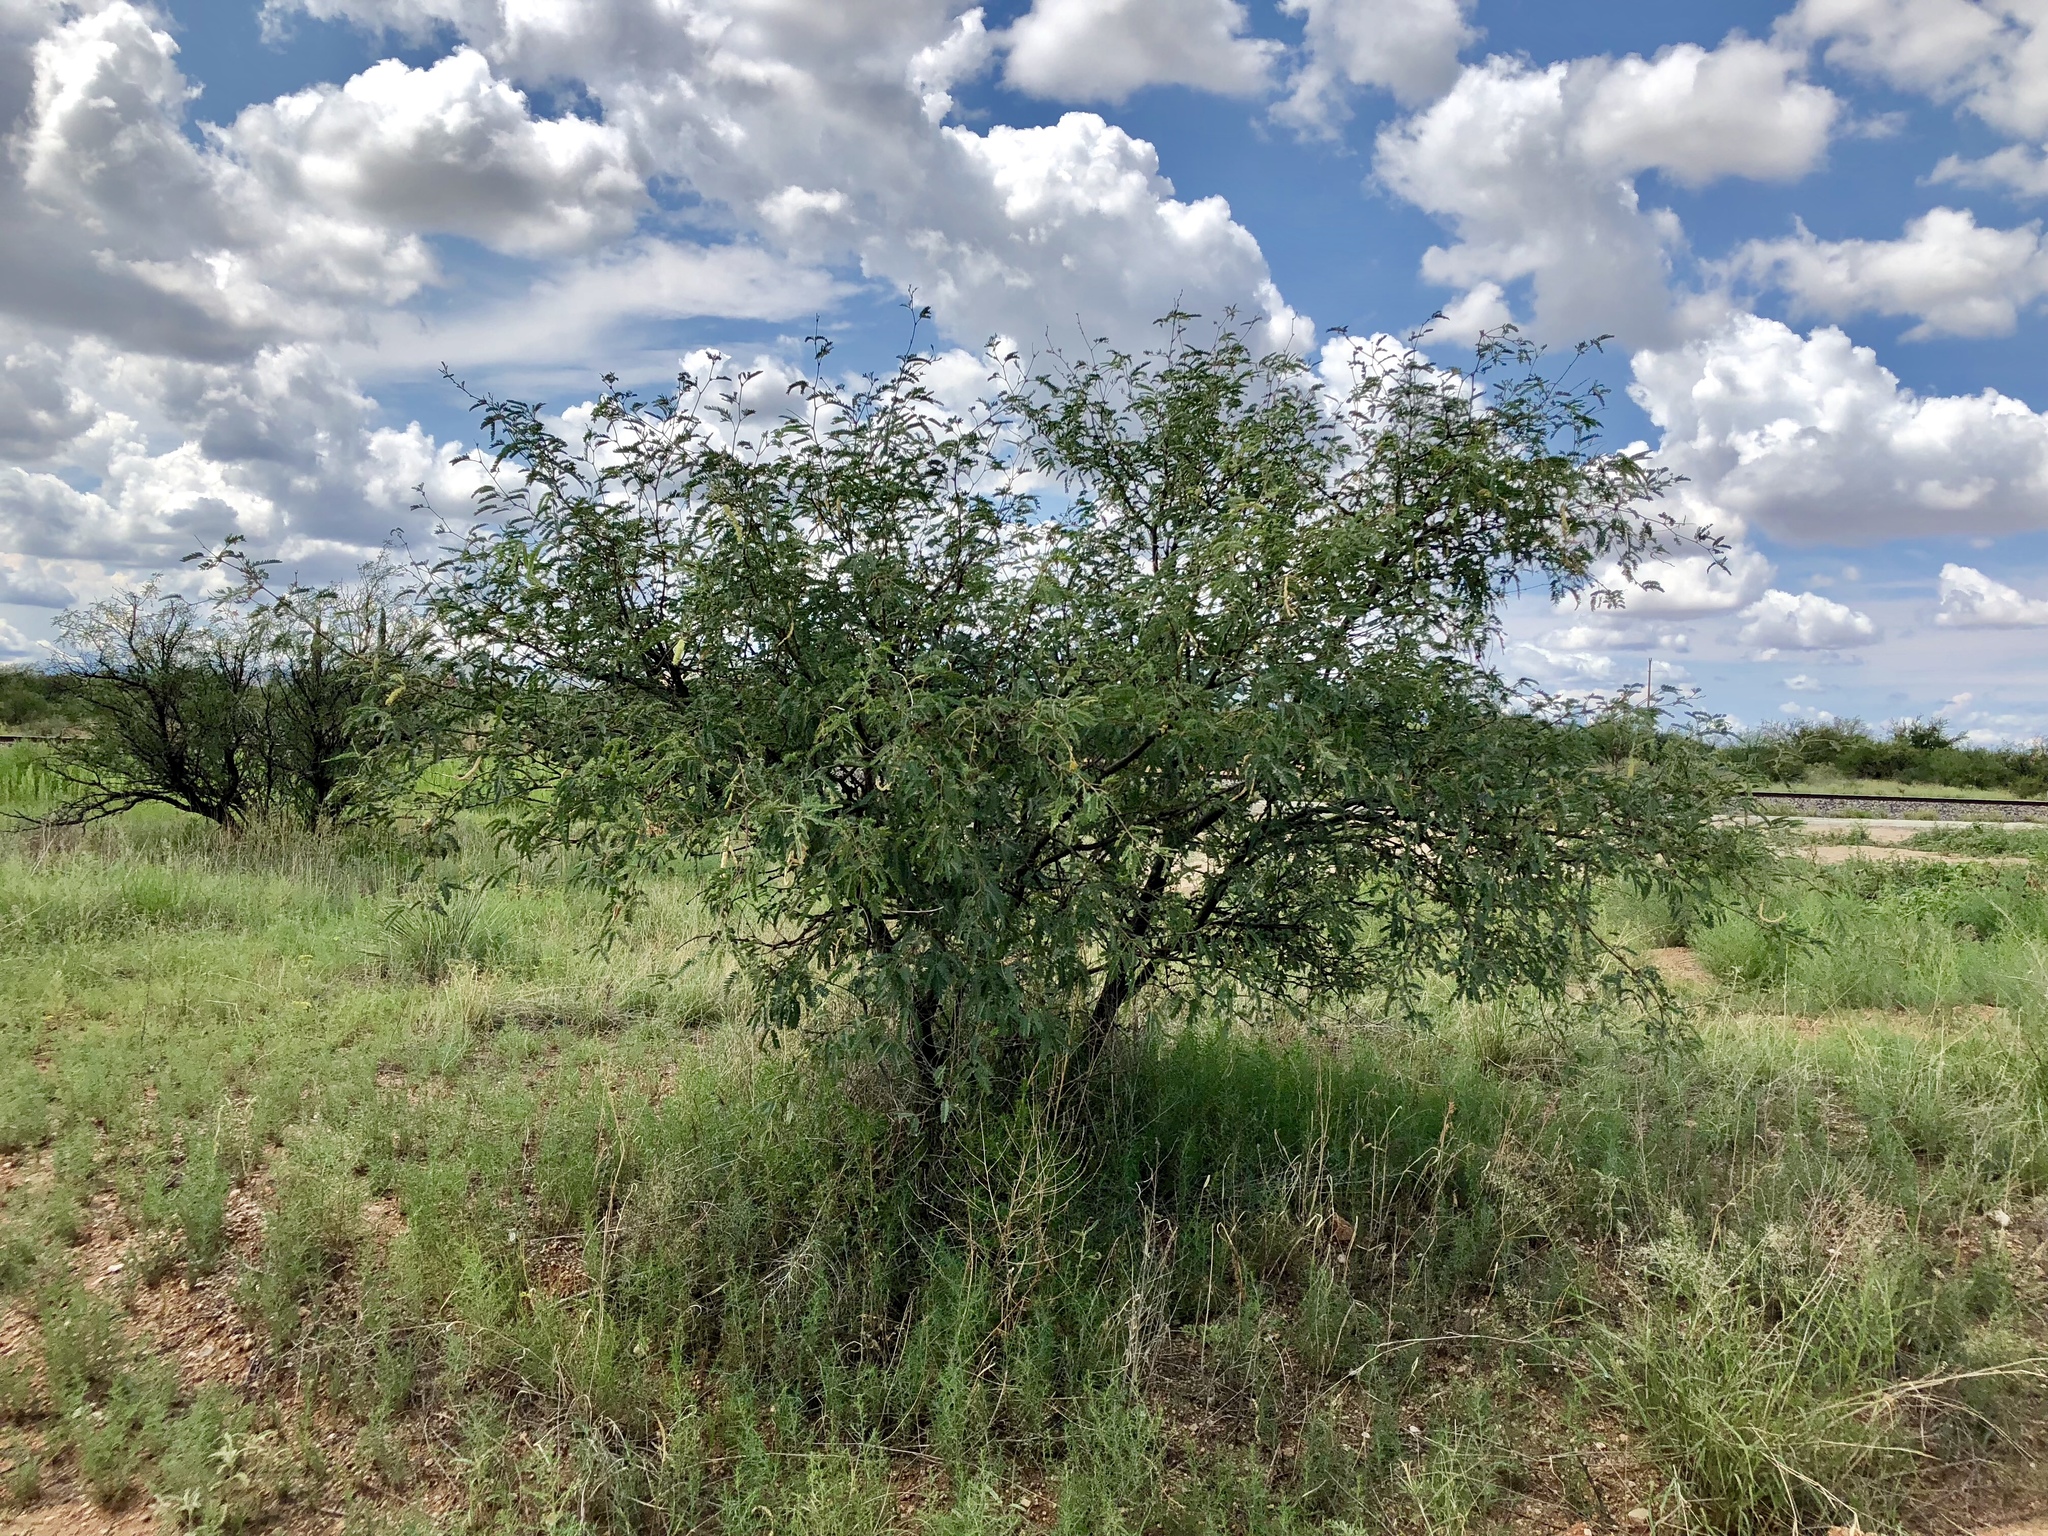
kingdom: Plantae
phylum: Tracheophyta
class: Magnoliopsida
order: Fabales
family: Fabaceae
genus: Prosopis
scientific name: Prosopis velutina
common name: Velvet mesquite
